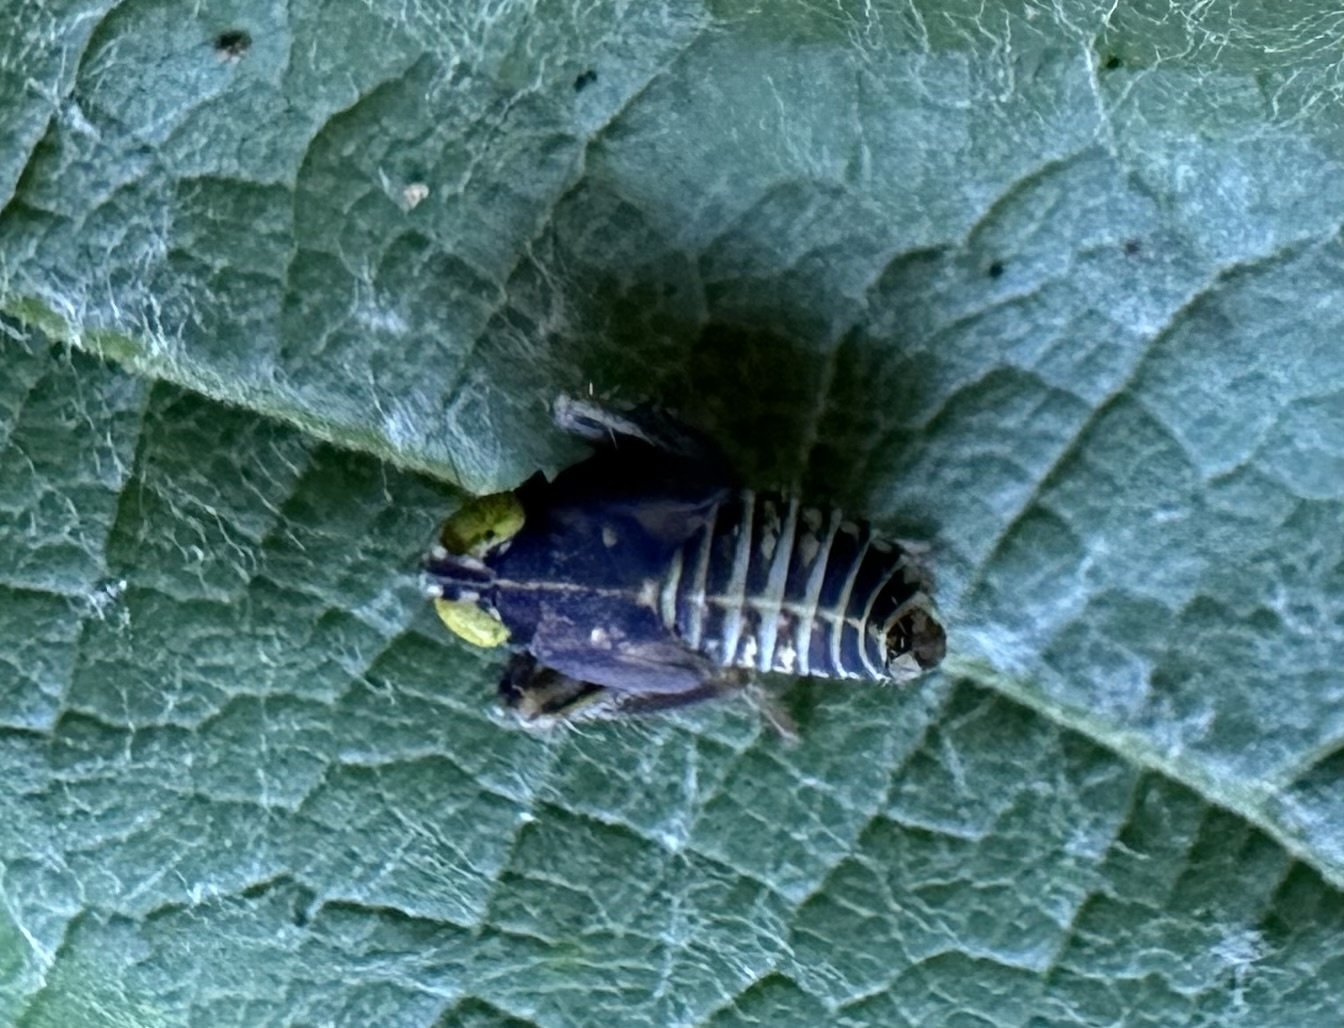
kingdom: Animalia
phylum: Arthropoda
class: Insecta
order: Hemiptera
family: Cicadellidae
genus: Jikradia
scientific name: Jikradia olitoria
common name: Coppery leafhopper
